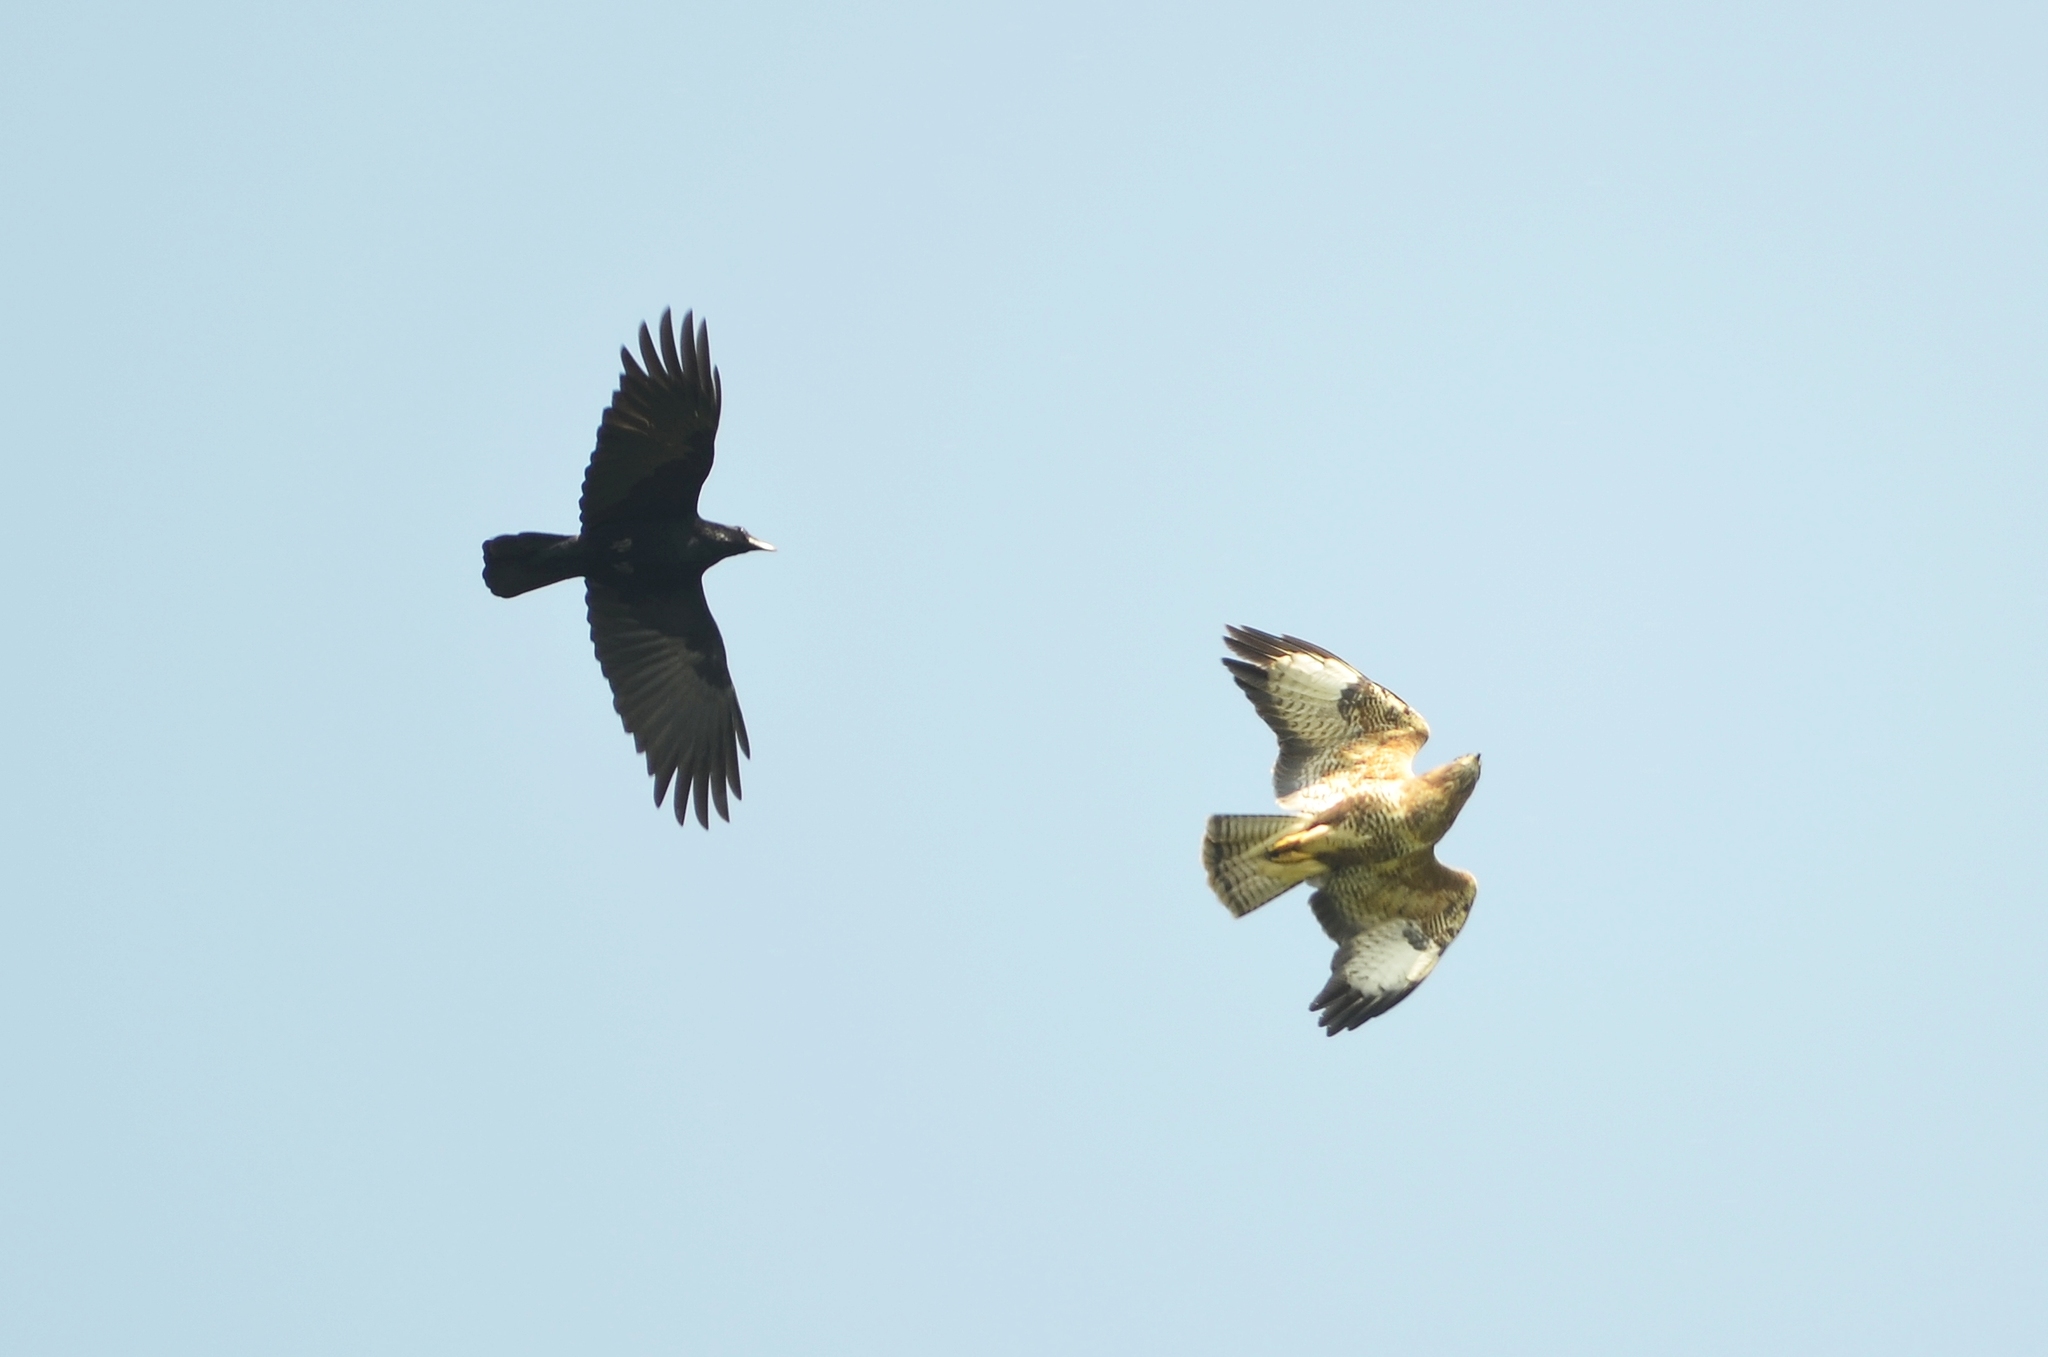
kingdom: Animalia
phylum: Chordata
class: Aves
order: Accipitriformes
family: Accipitridae
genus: Buteo
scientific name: Buteo buteo
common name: Common buzzard
